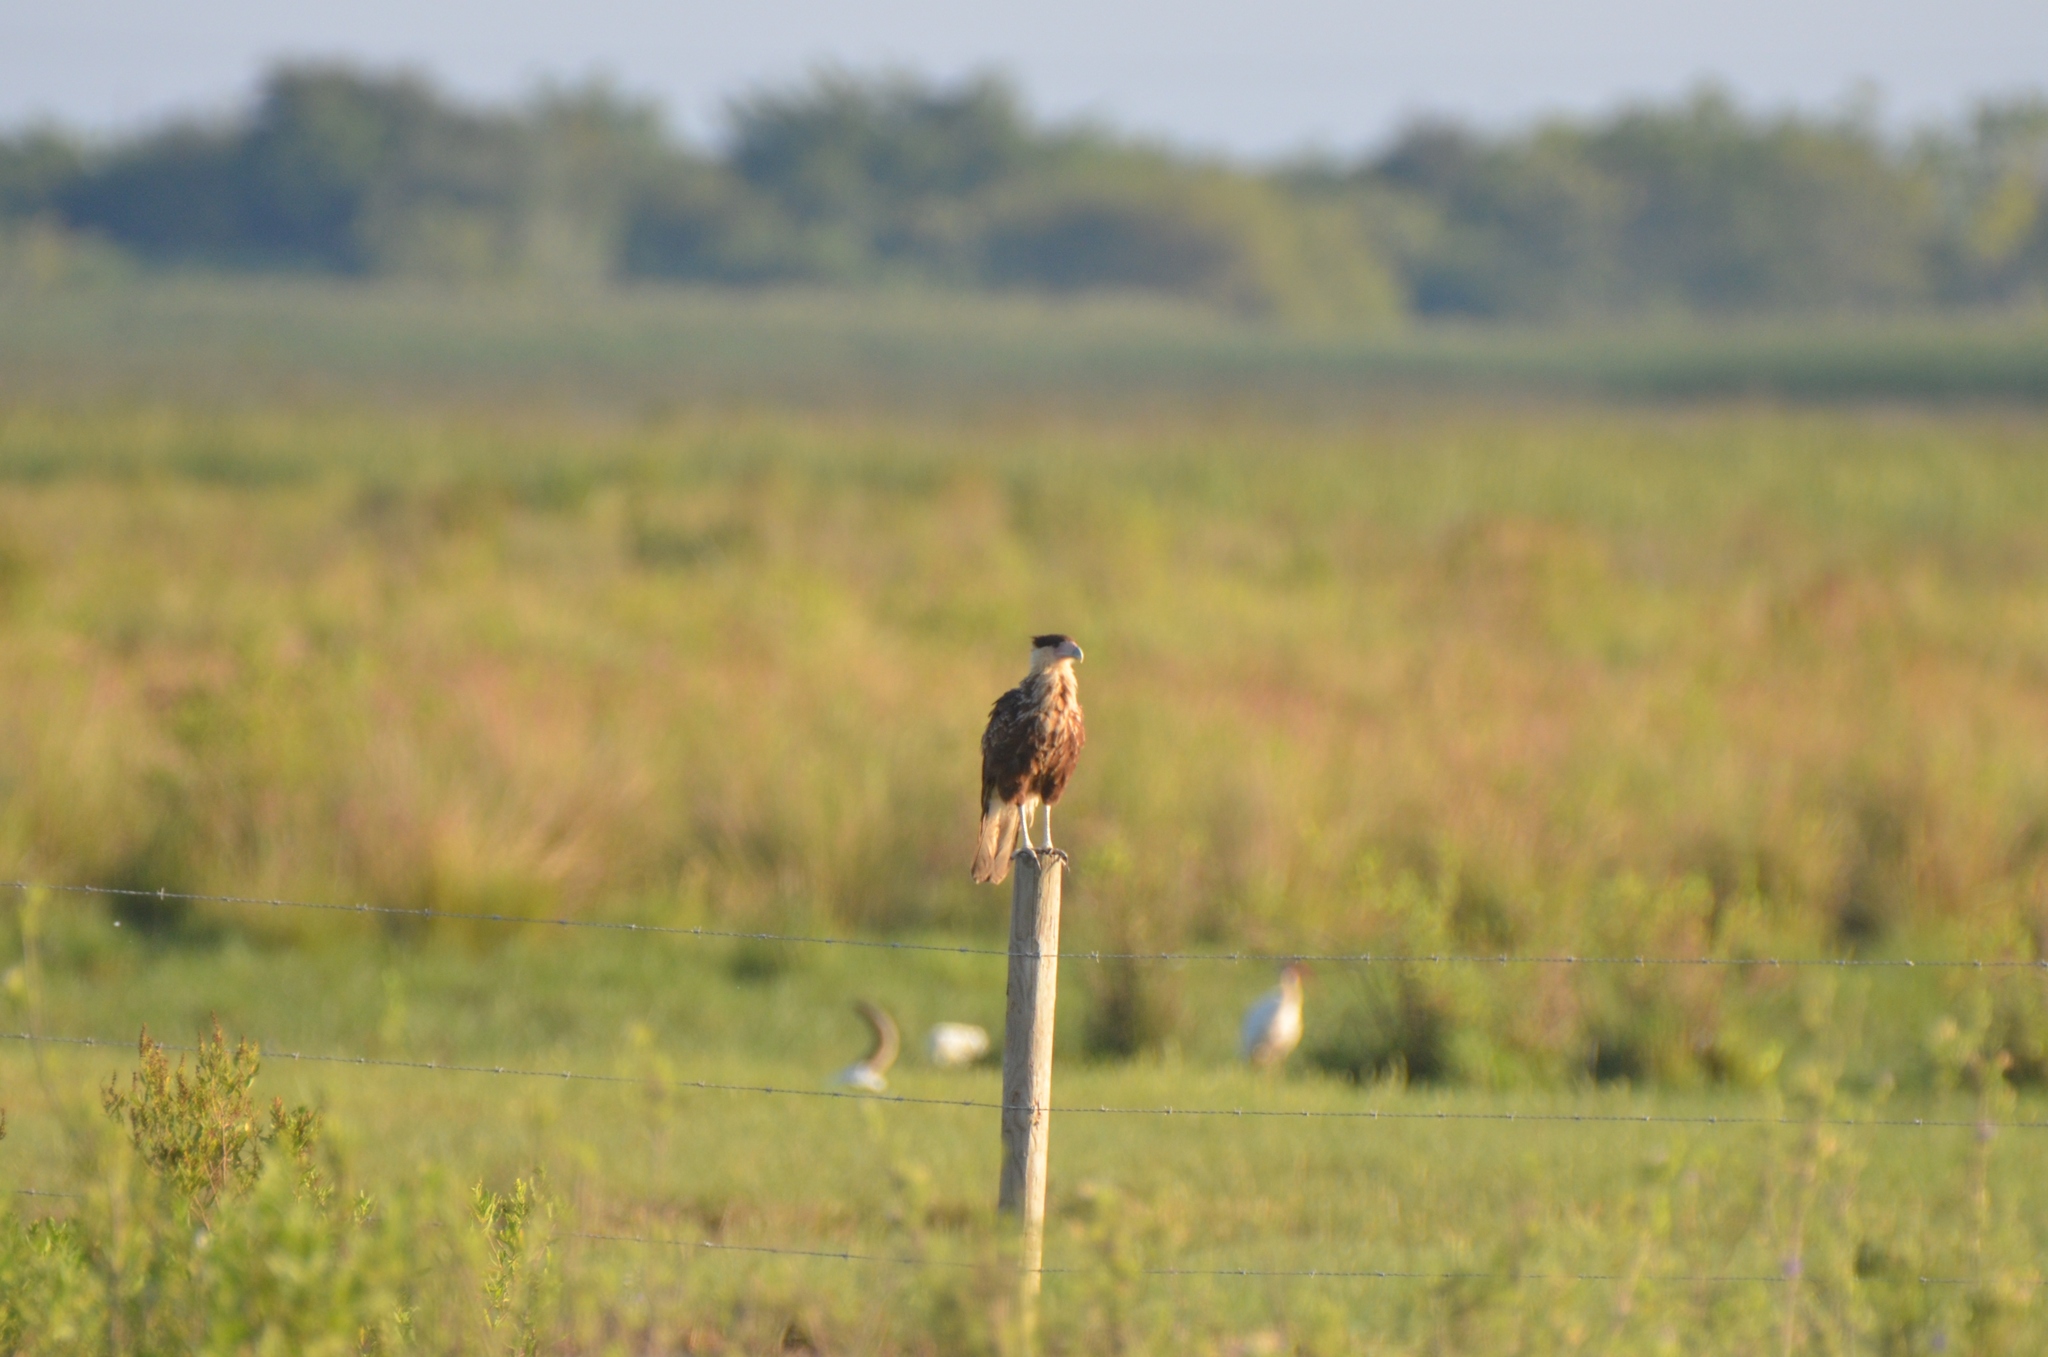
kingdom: Animalia
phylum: Chordata
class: Aves
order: Falconiformes
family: Falconidae
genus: Caracara
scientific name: Caracara plancus
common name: Southern caracara
